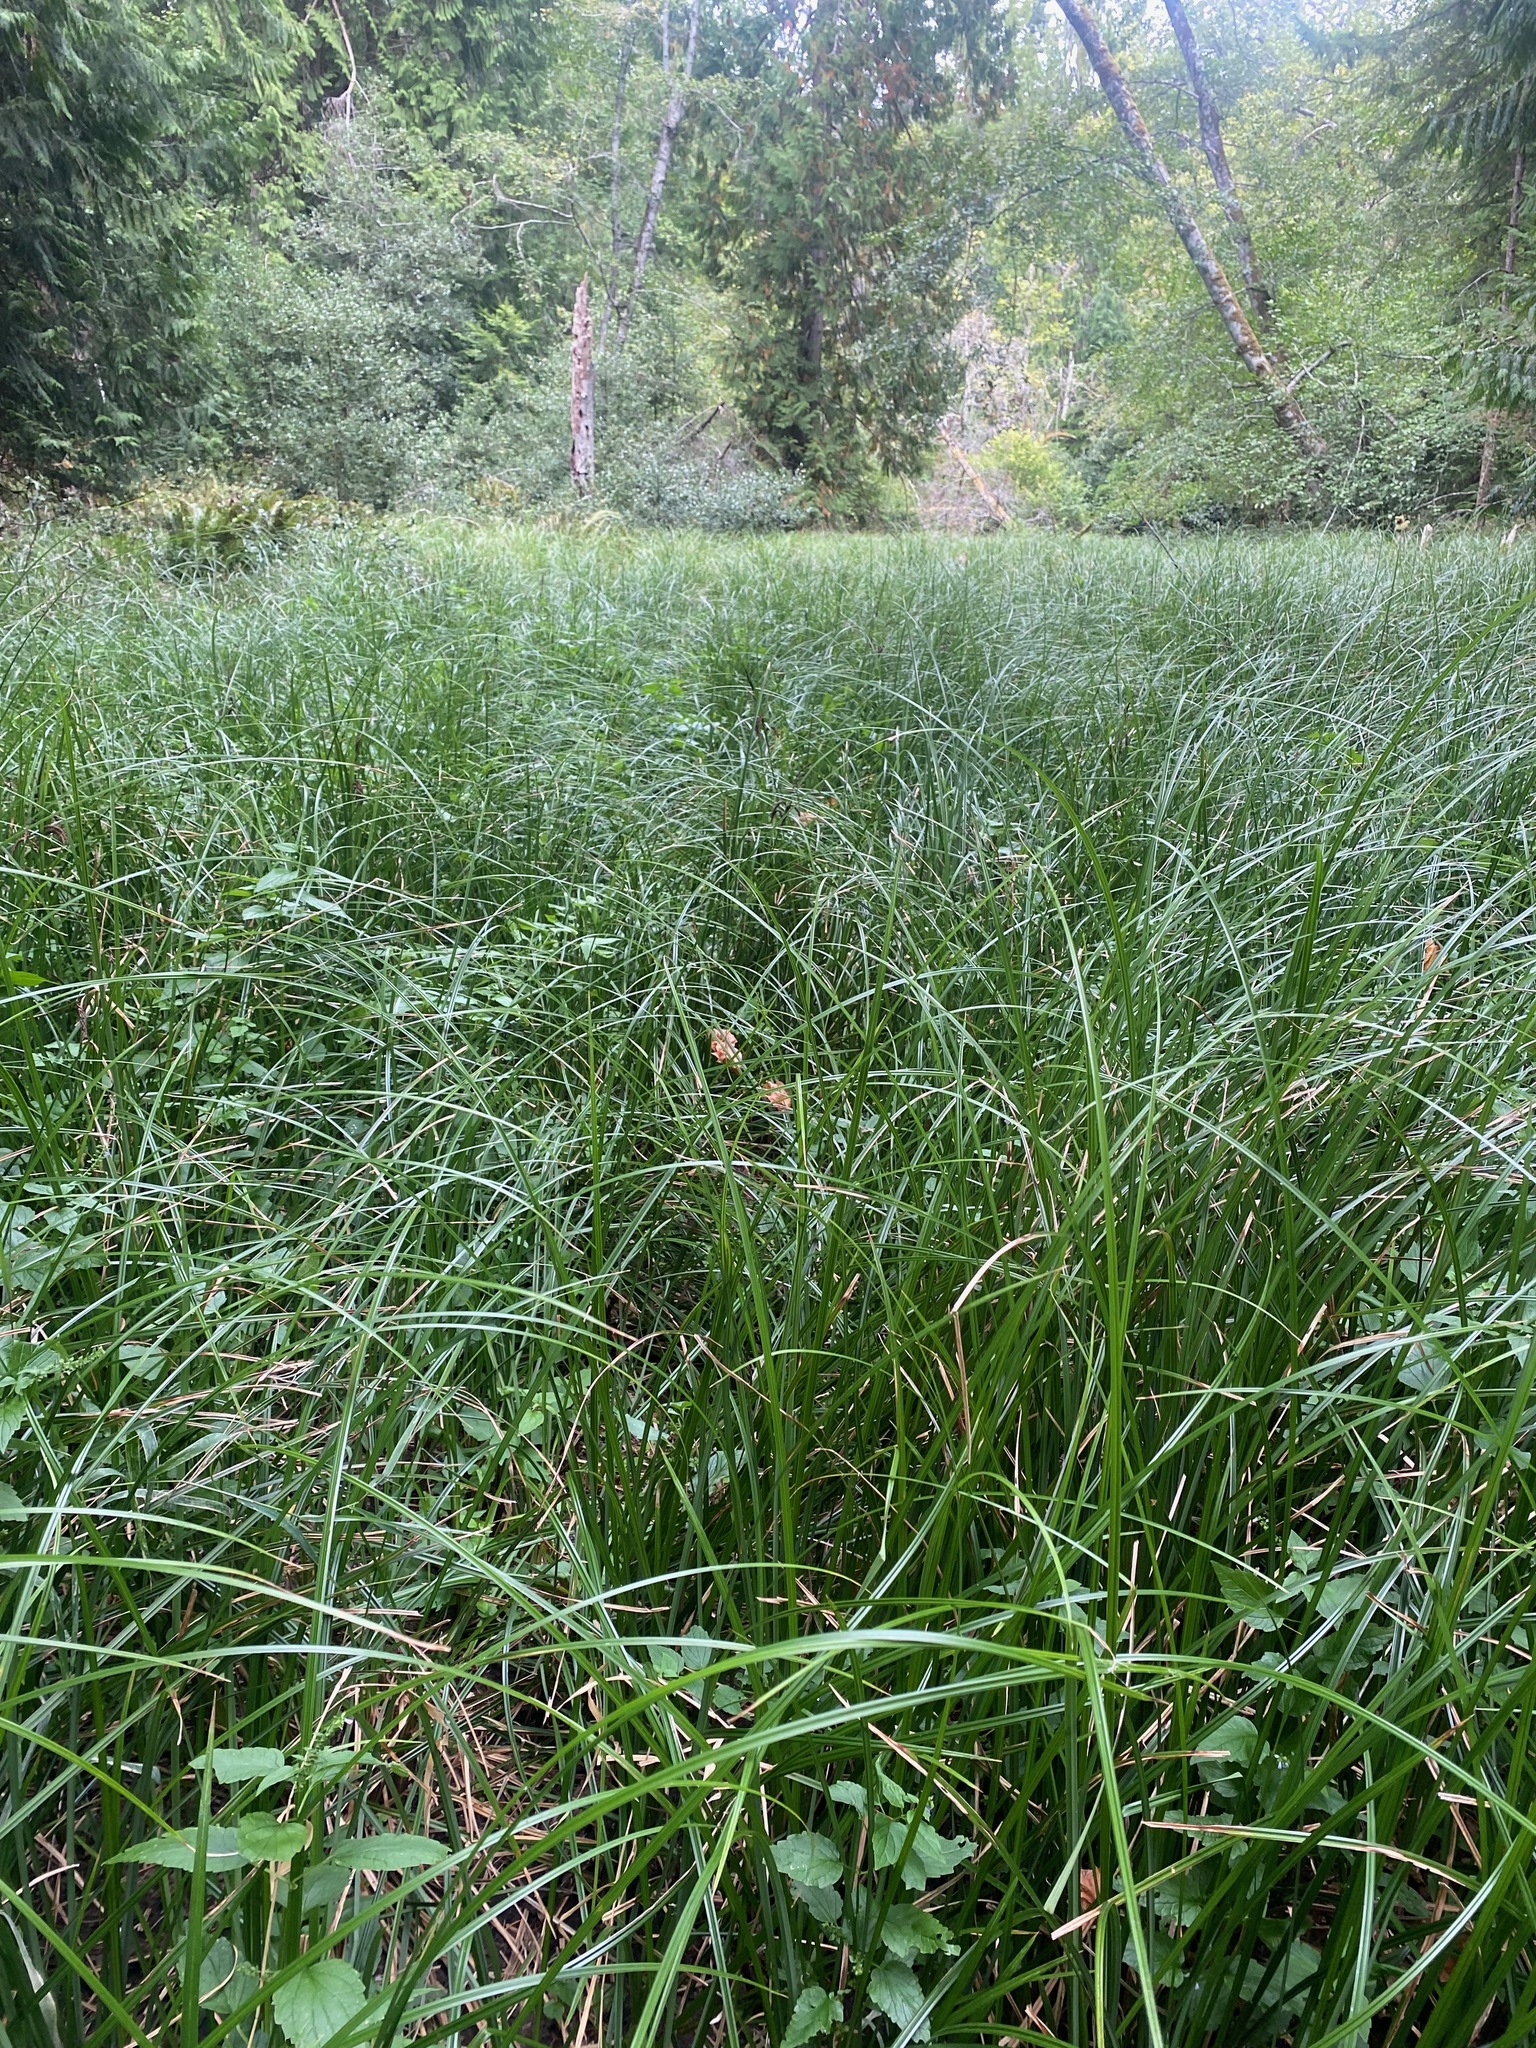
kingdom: Plantae
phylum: Tracheophyta
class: Liliopsida
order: Poales
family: Cyperaceae
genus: Carex
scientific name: Carex obnupta
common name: Slough sedge
